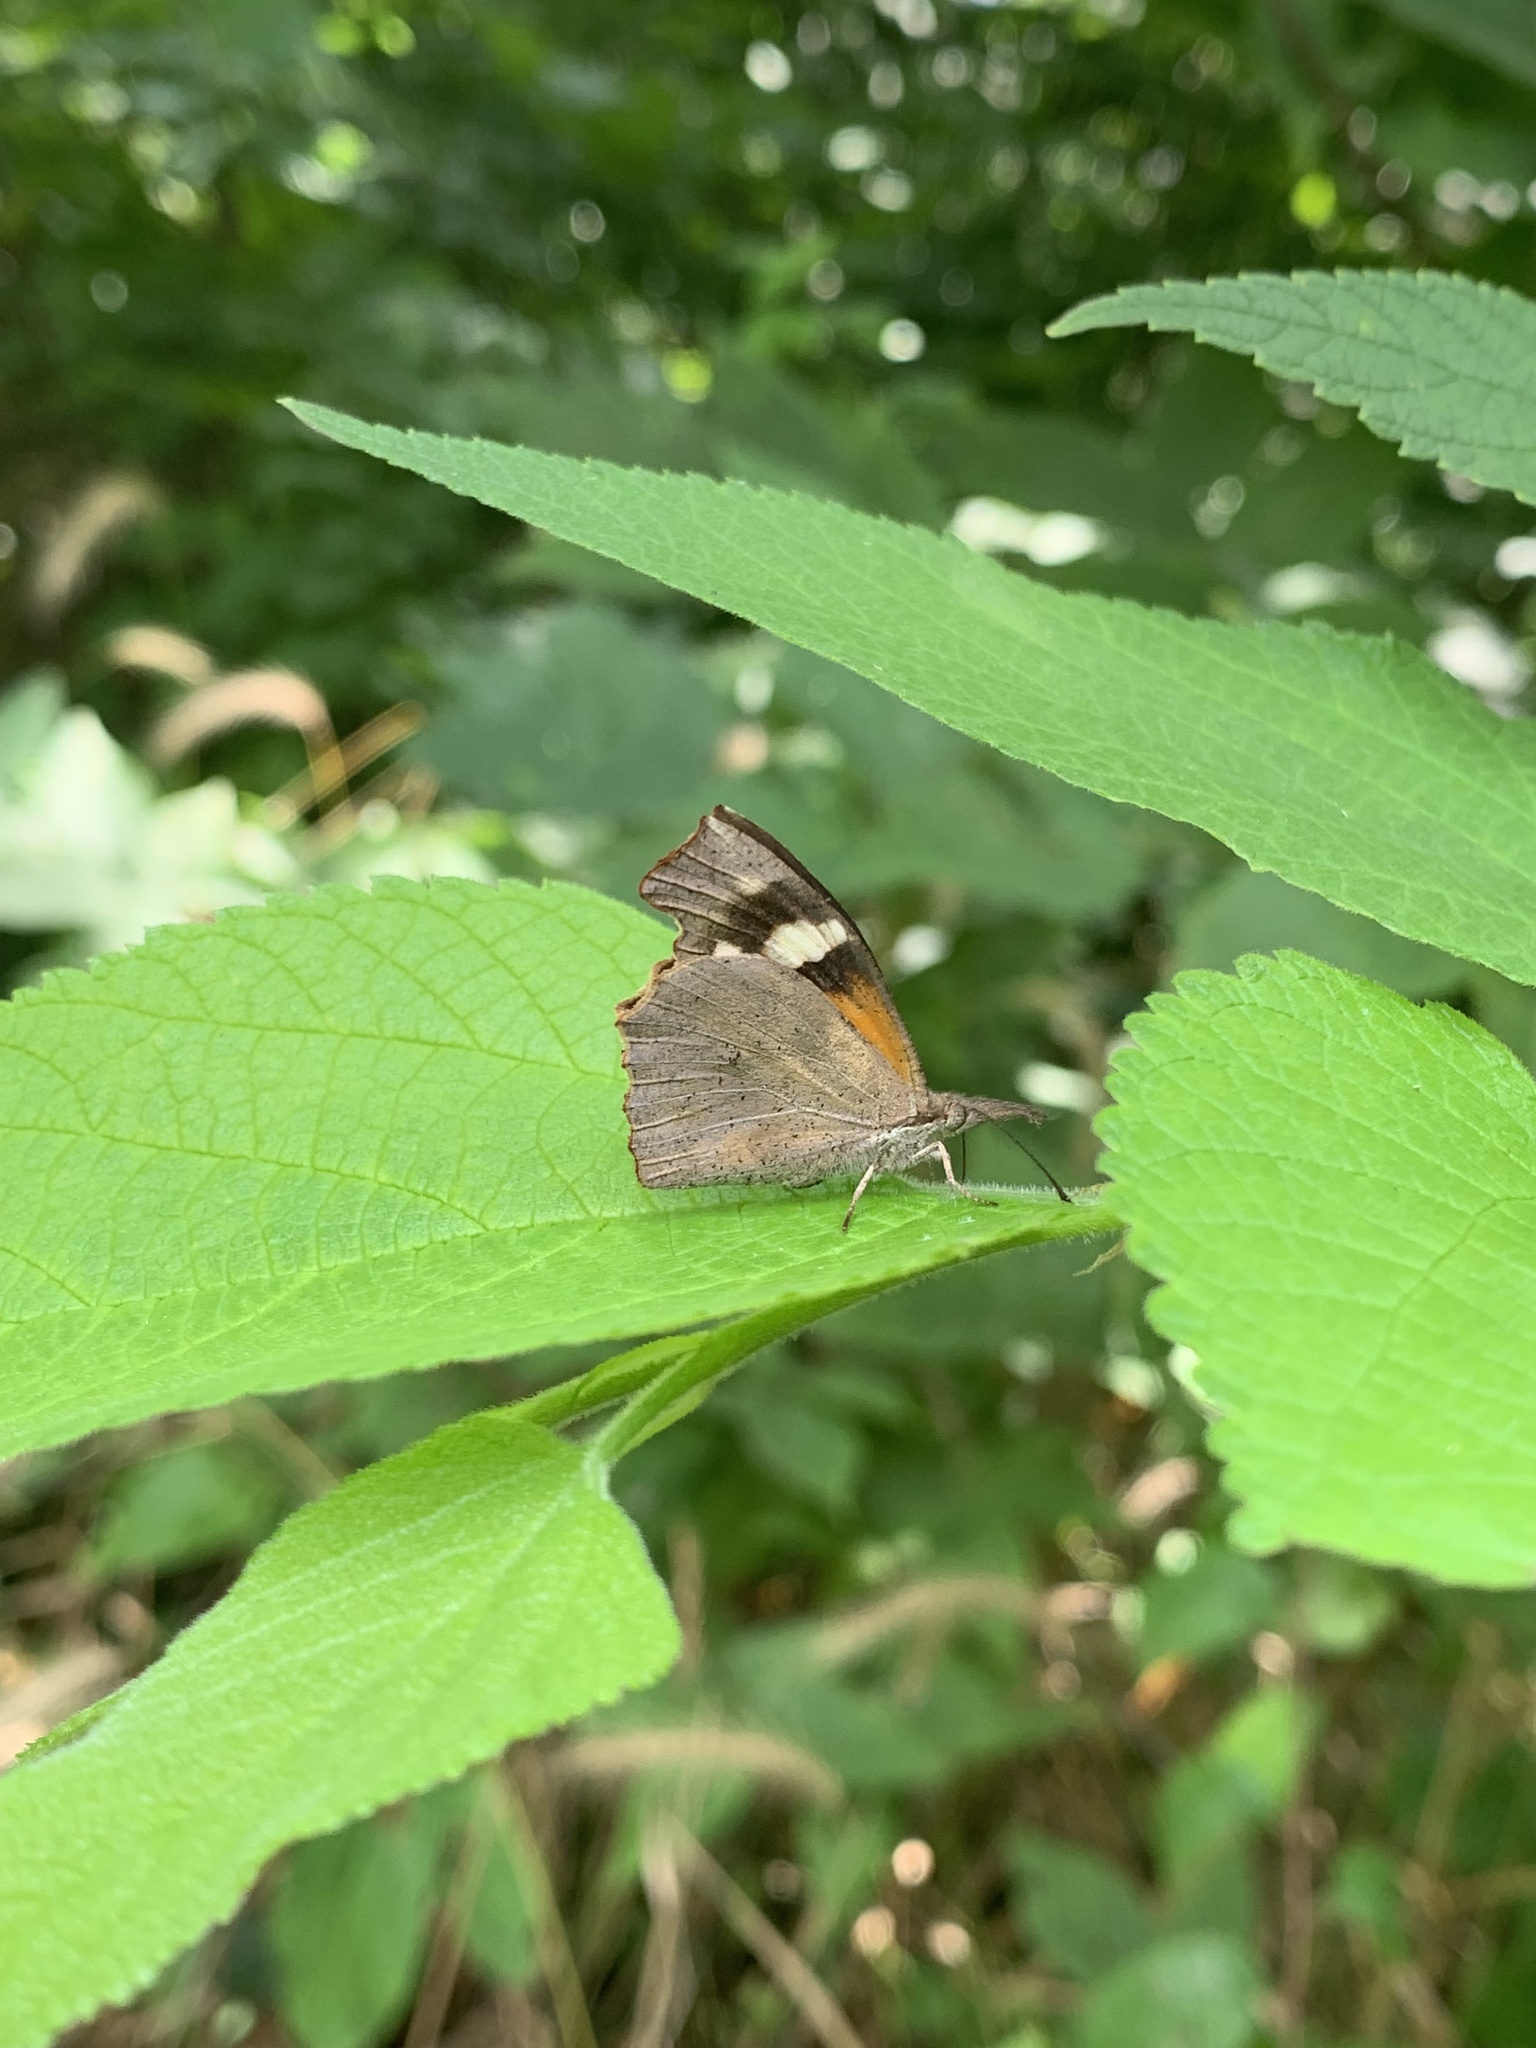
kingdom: Animalia
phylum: Arthropoda
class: Insecta
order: Lepidoptera
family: Nymphalidae
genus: Libytheana
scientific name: Libytheana carinenta
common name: American snout
